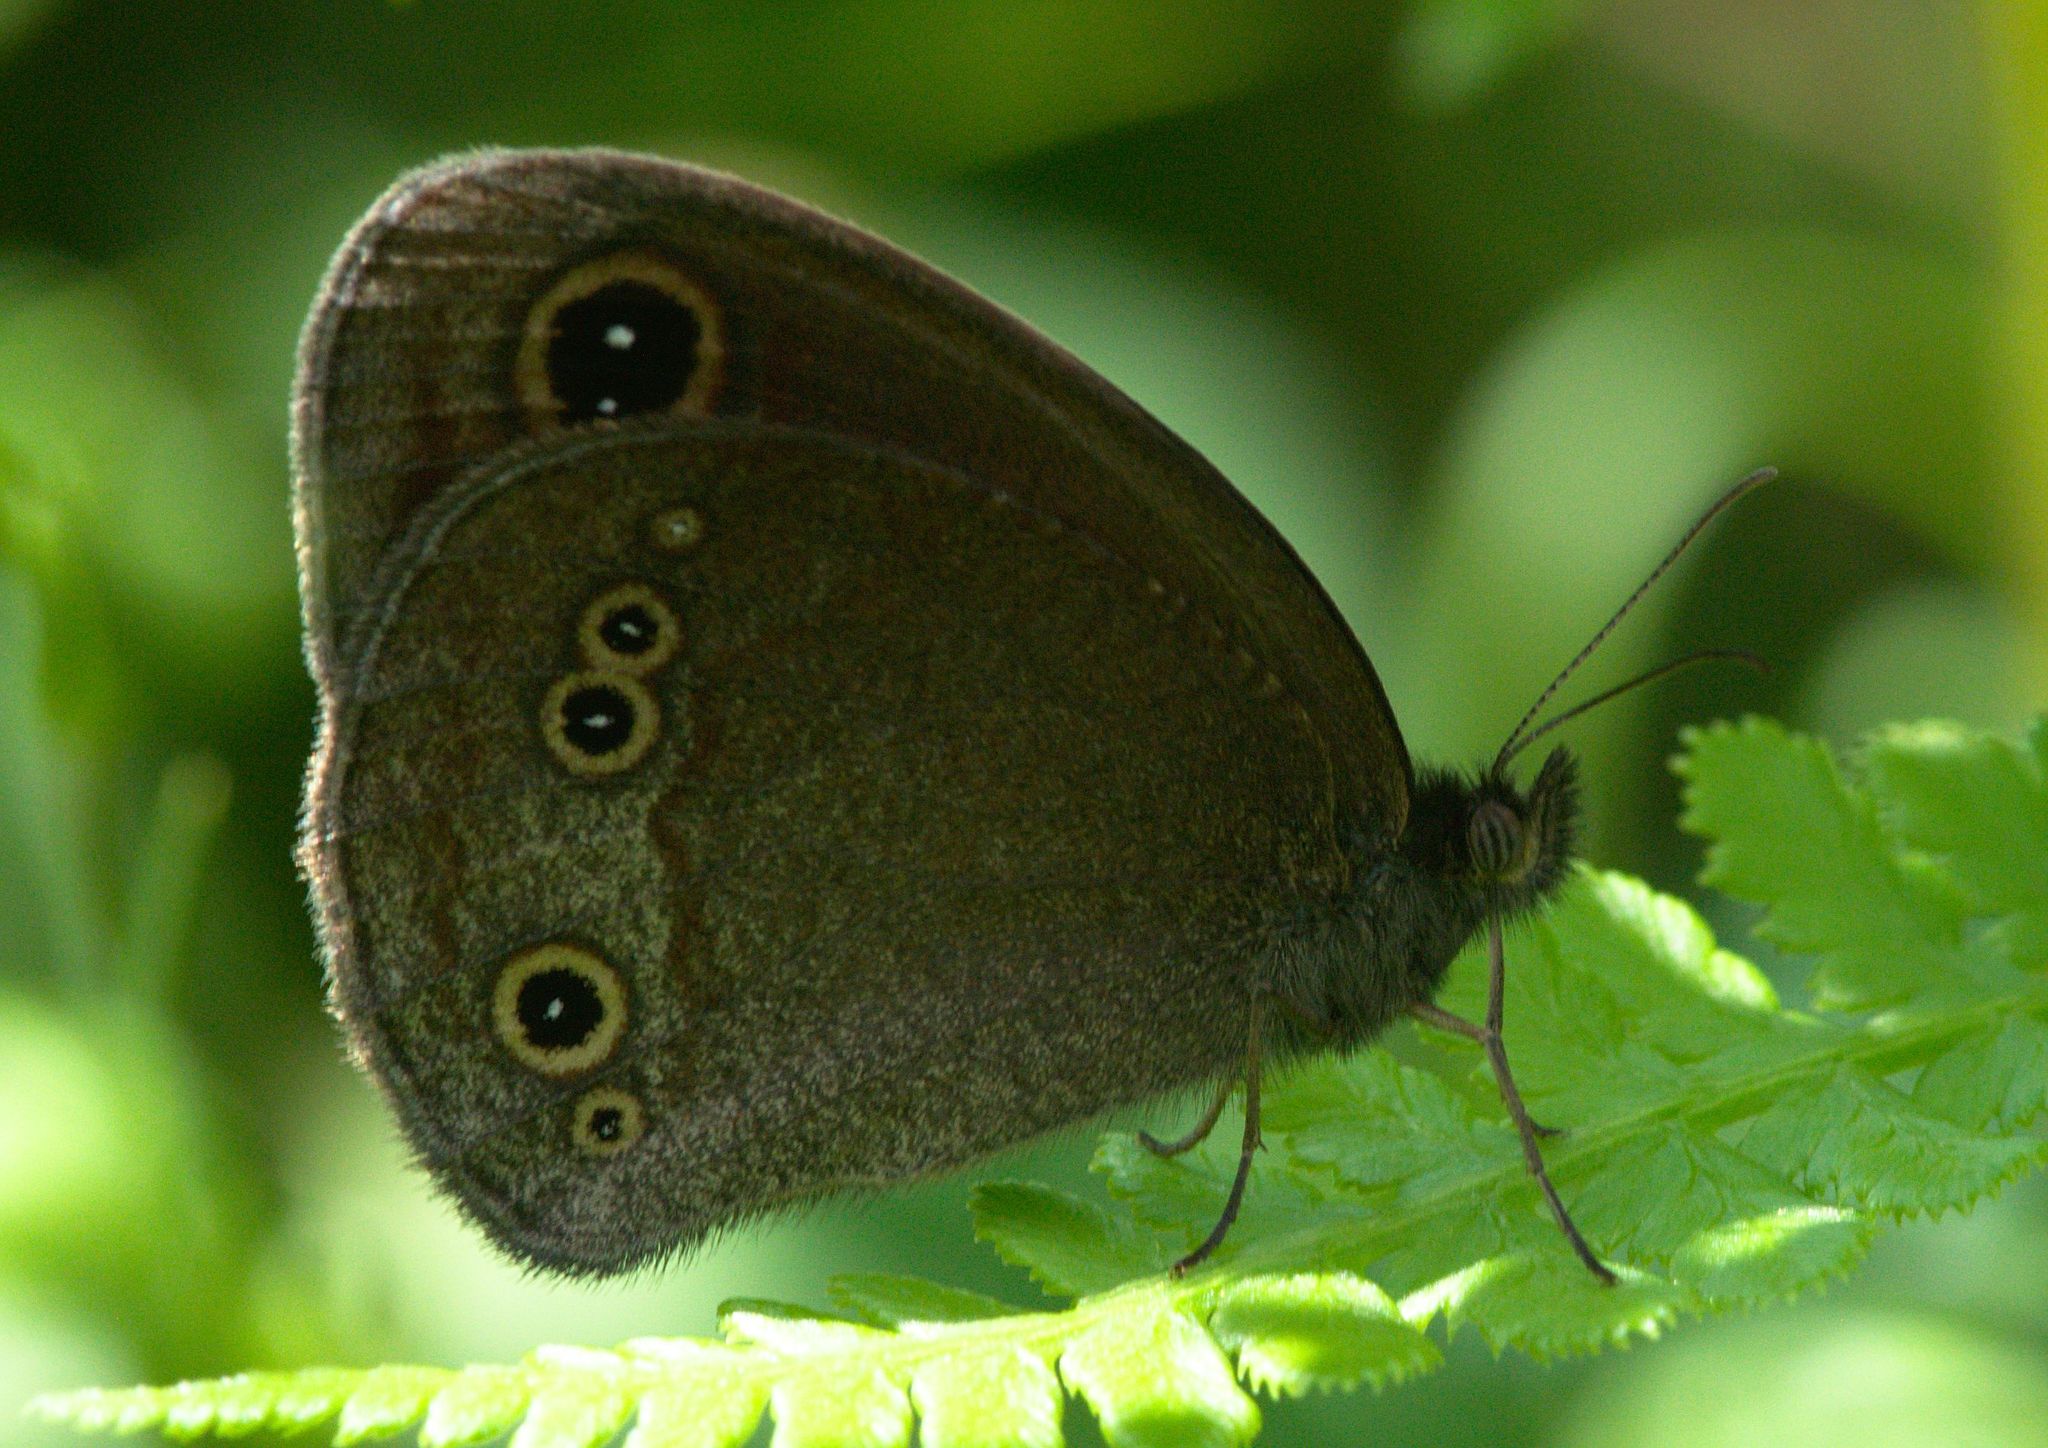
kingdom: Animalia
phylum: Arthropoda
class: Insecta
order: Lepidoptera
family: Nymphalidae
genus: Callerebia
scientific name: Callerebia nirmala
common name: Common argus
